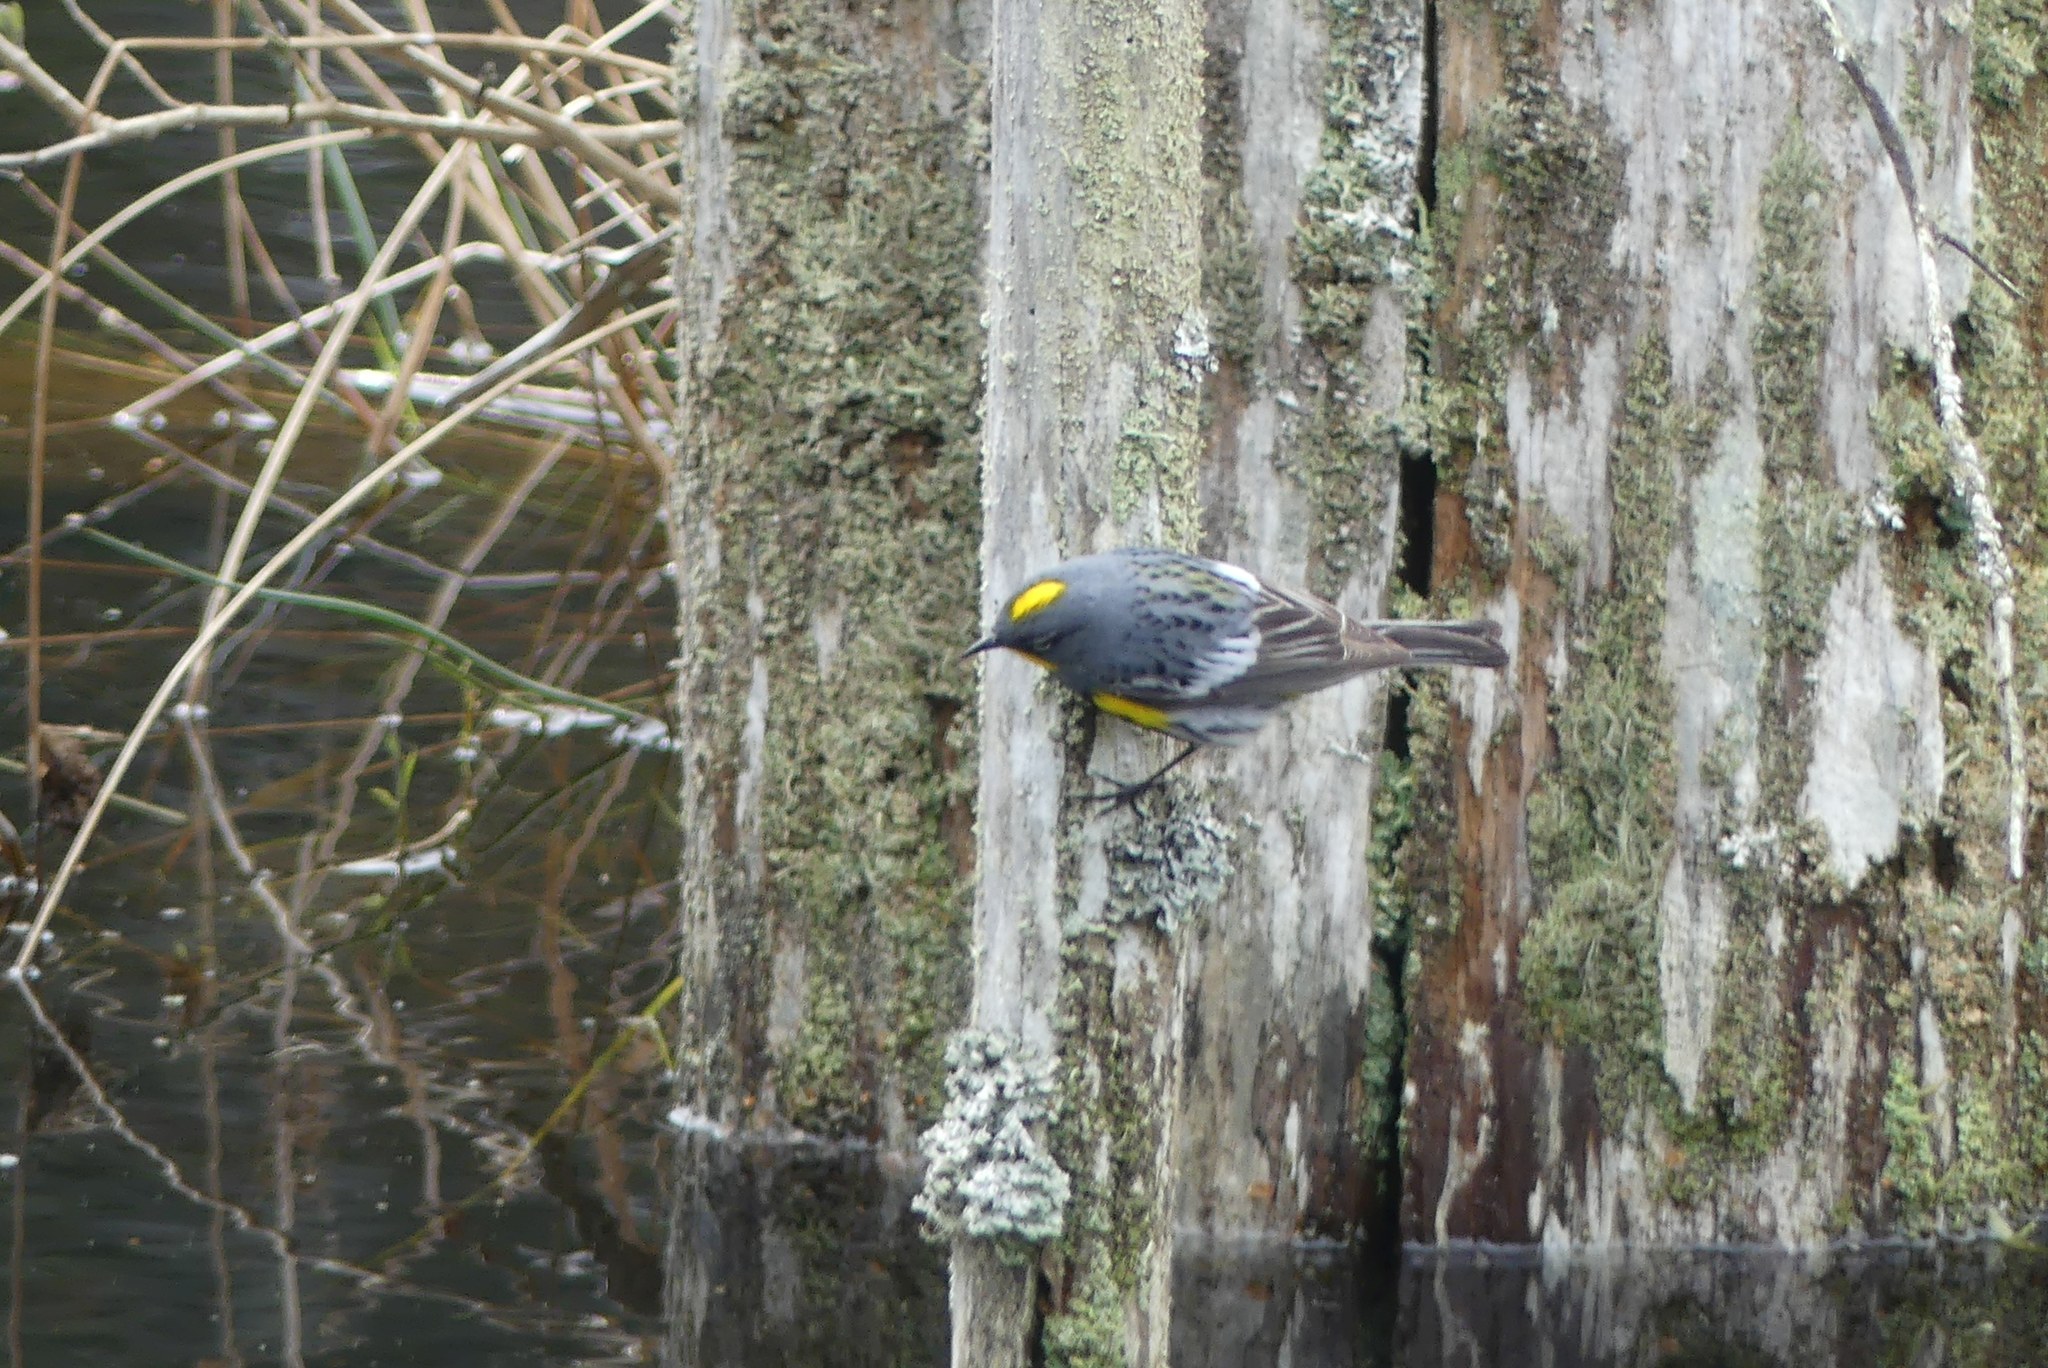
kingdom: Animalia
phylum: Chordata
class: Aves
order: Passeriformes
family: Parulidae
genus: Setophaga
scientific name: Setophaga coronata
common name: Myrtle warbler
